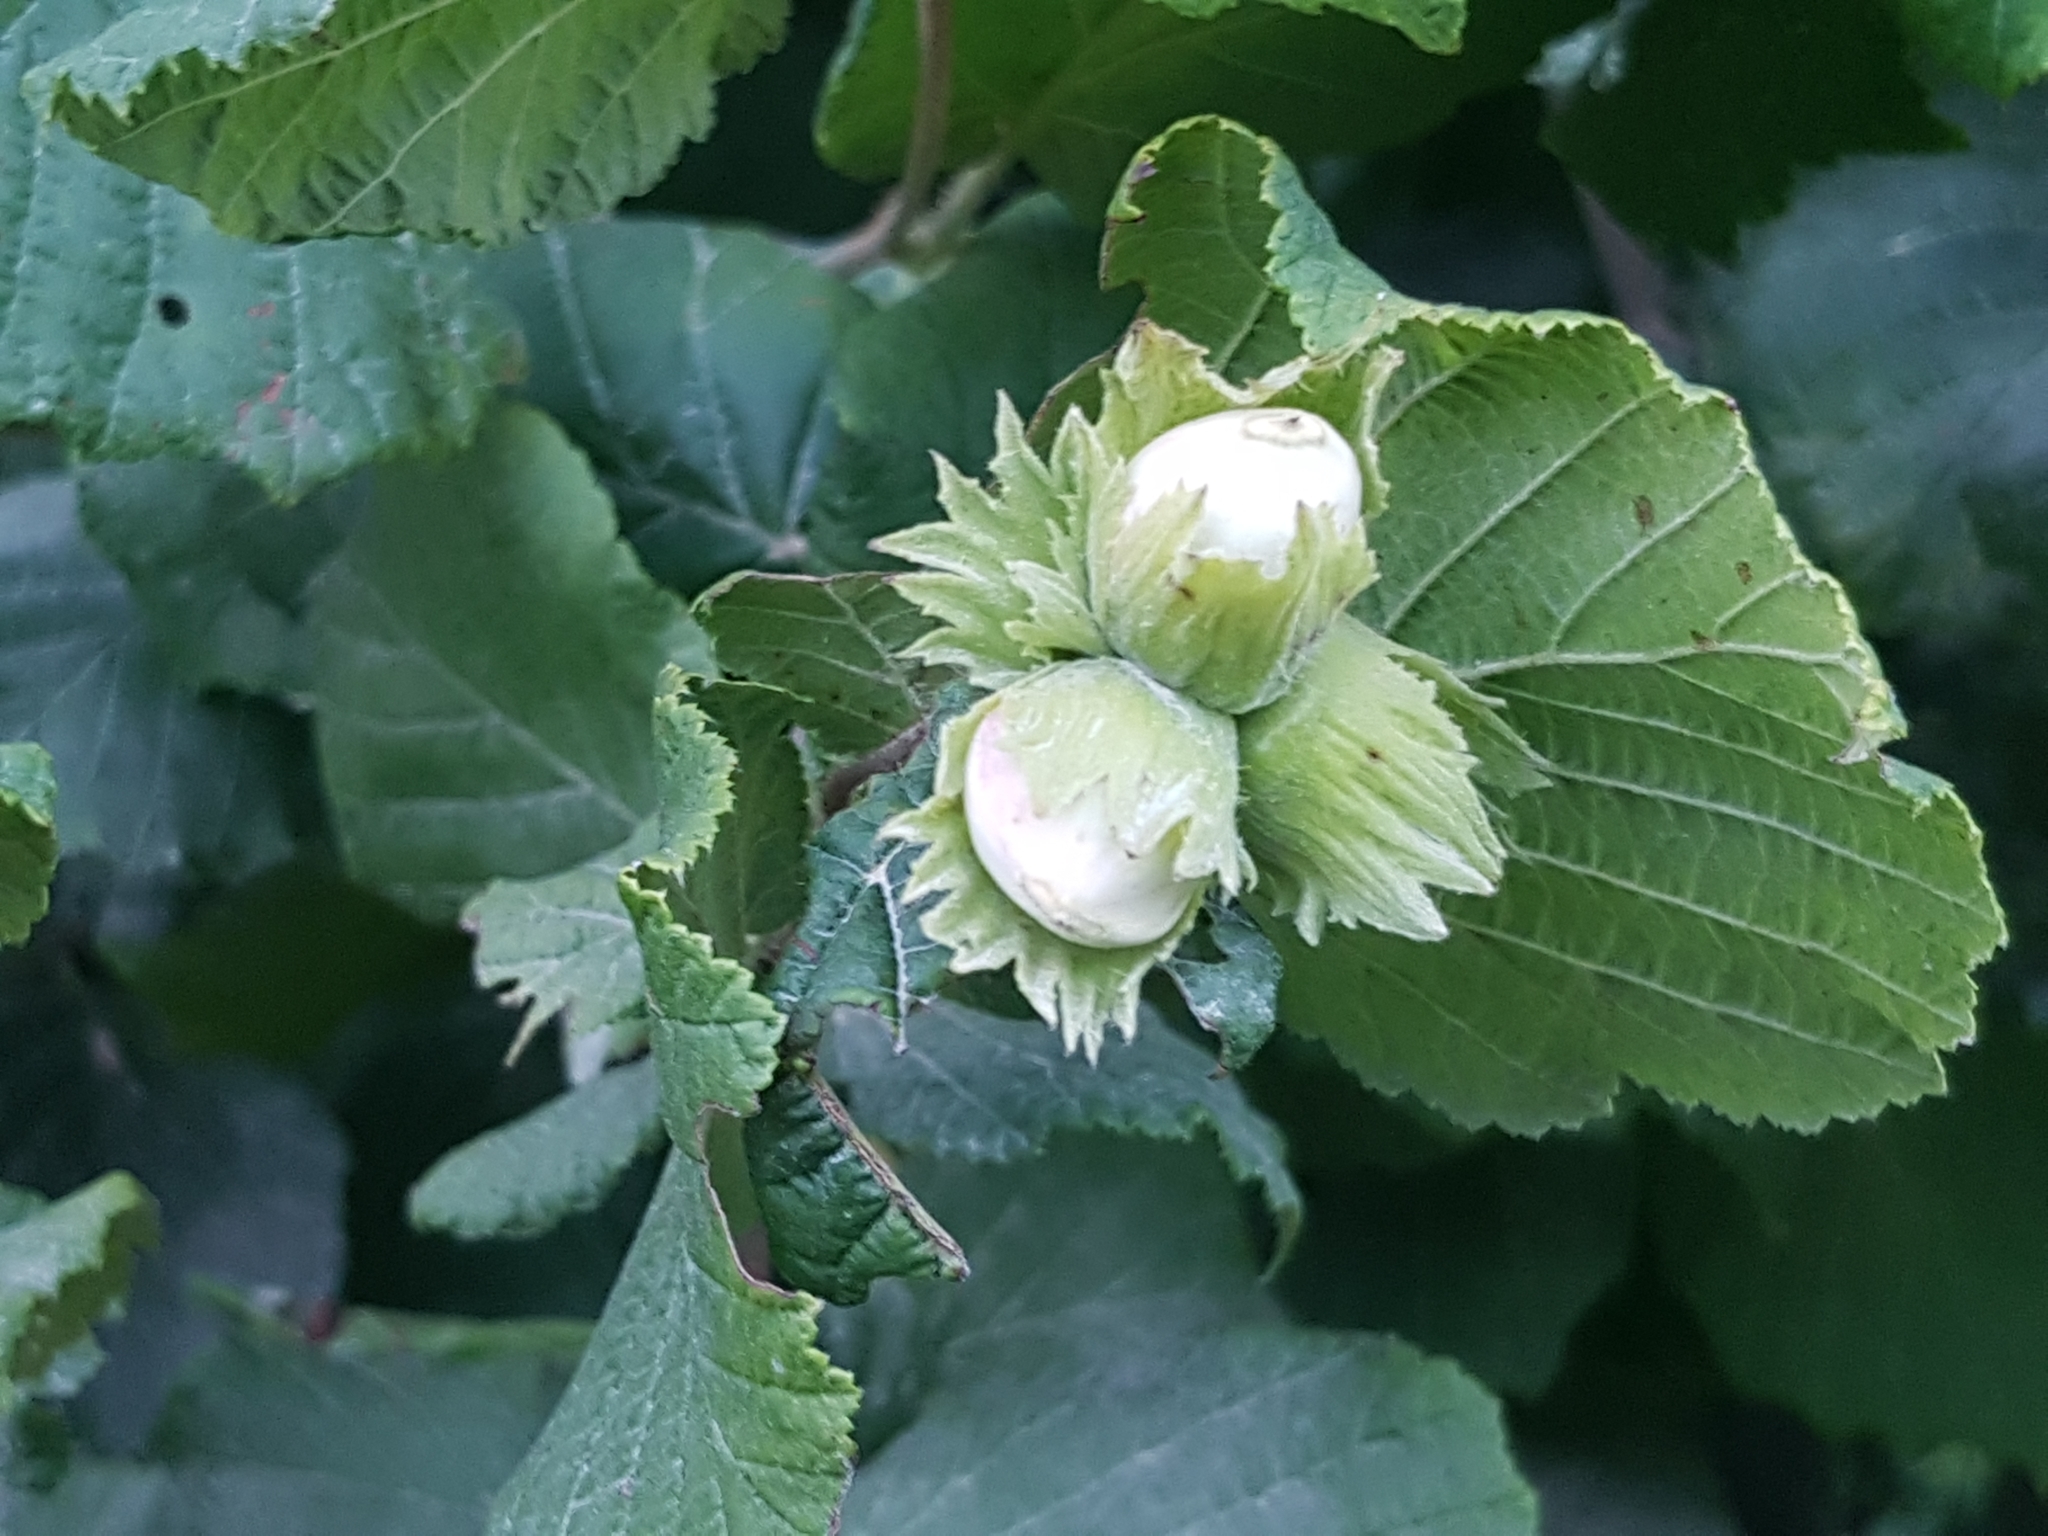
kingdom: Plantae
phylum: Tracheophyta
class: Magnoliopsida
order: Fagales
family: Betulaceae
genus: Corylus
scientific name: Corylus avellana
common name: European hazel
